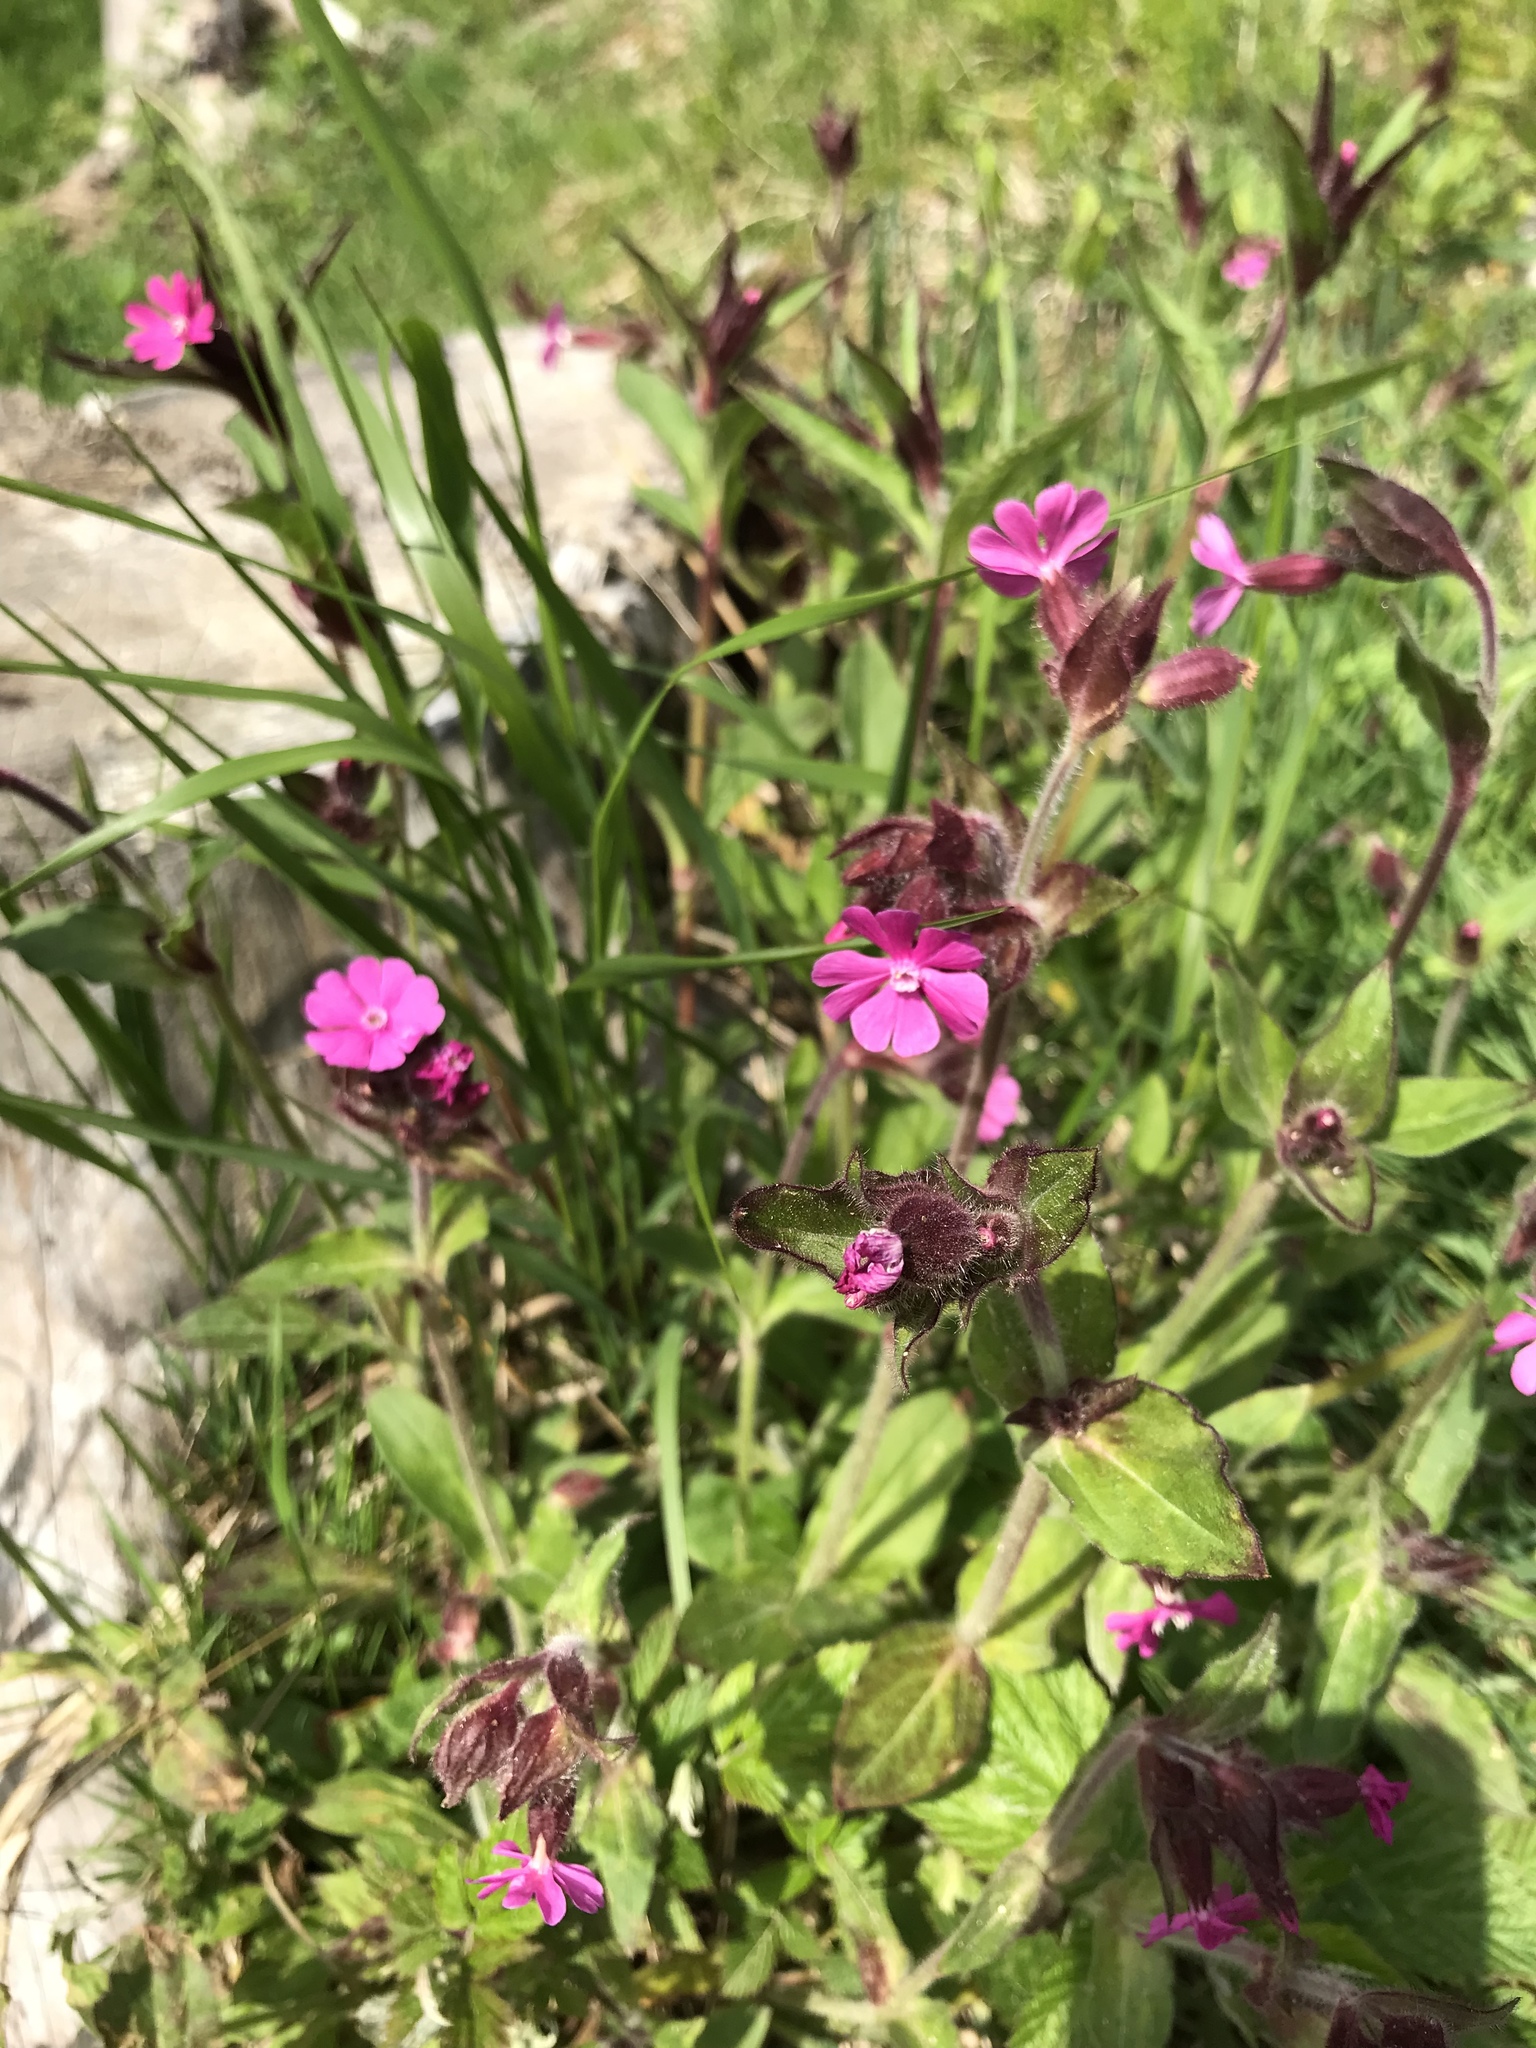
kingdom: Plantae
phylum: Tracheophyta
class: Magnoliopsida
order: Caryophyllales
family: Caryophyllaceae
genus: Silene
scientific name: Silene dioica
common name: Red campion
